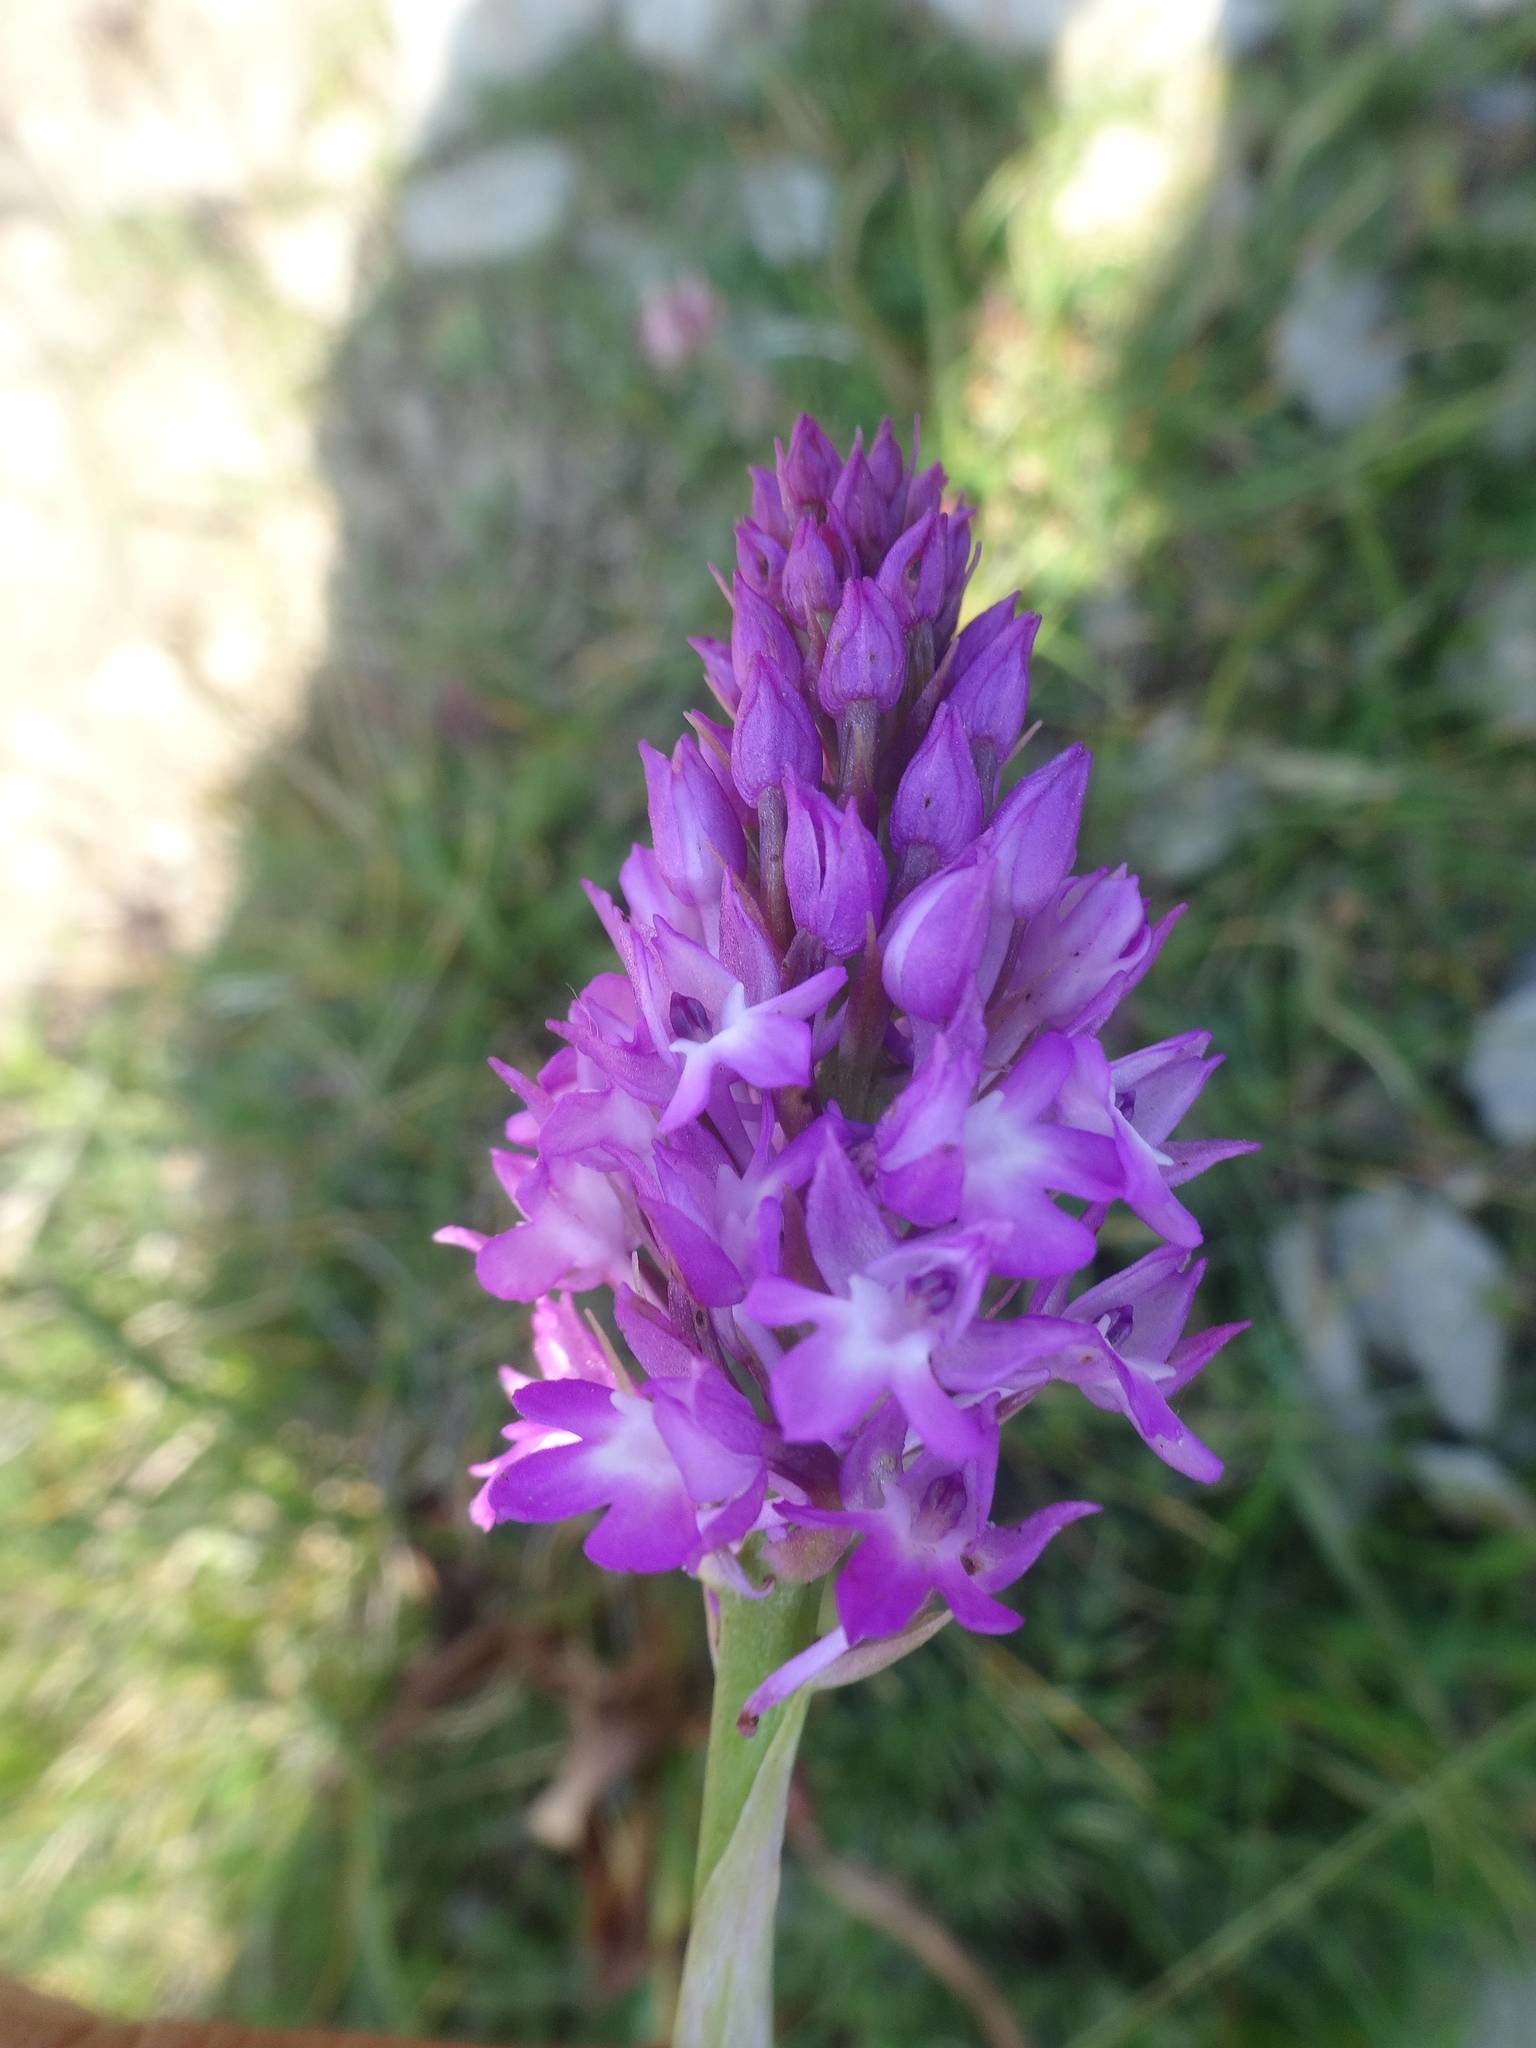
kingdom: Plantae
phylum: Tracheophyta
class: Liliopsida
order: Asparagales
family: Orchidaceae
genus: Anacamptis
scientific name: Anacamptis pyramidalis
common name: Pyramidal orchid
